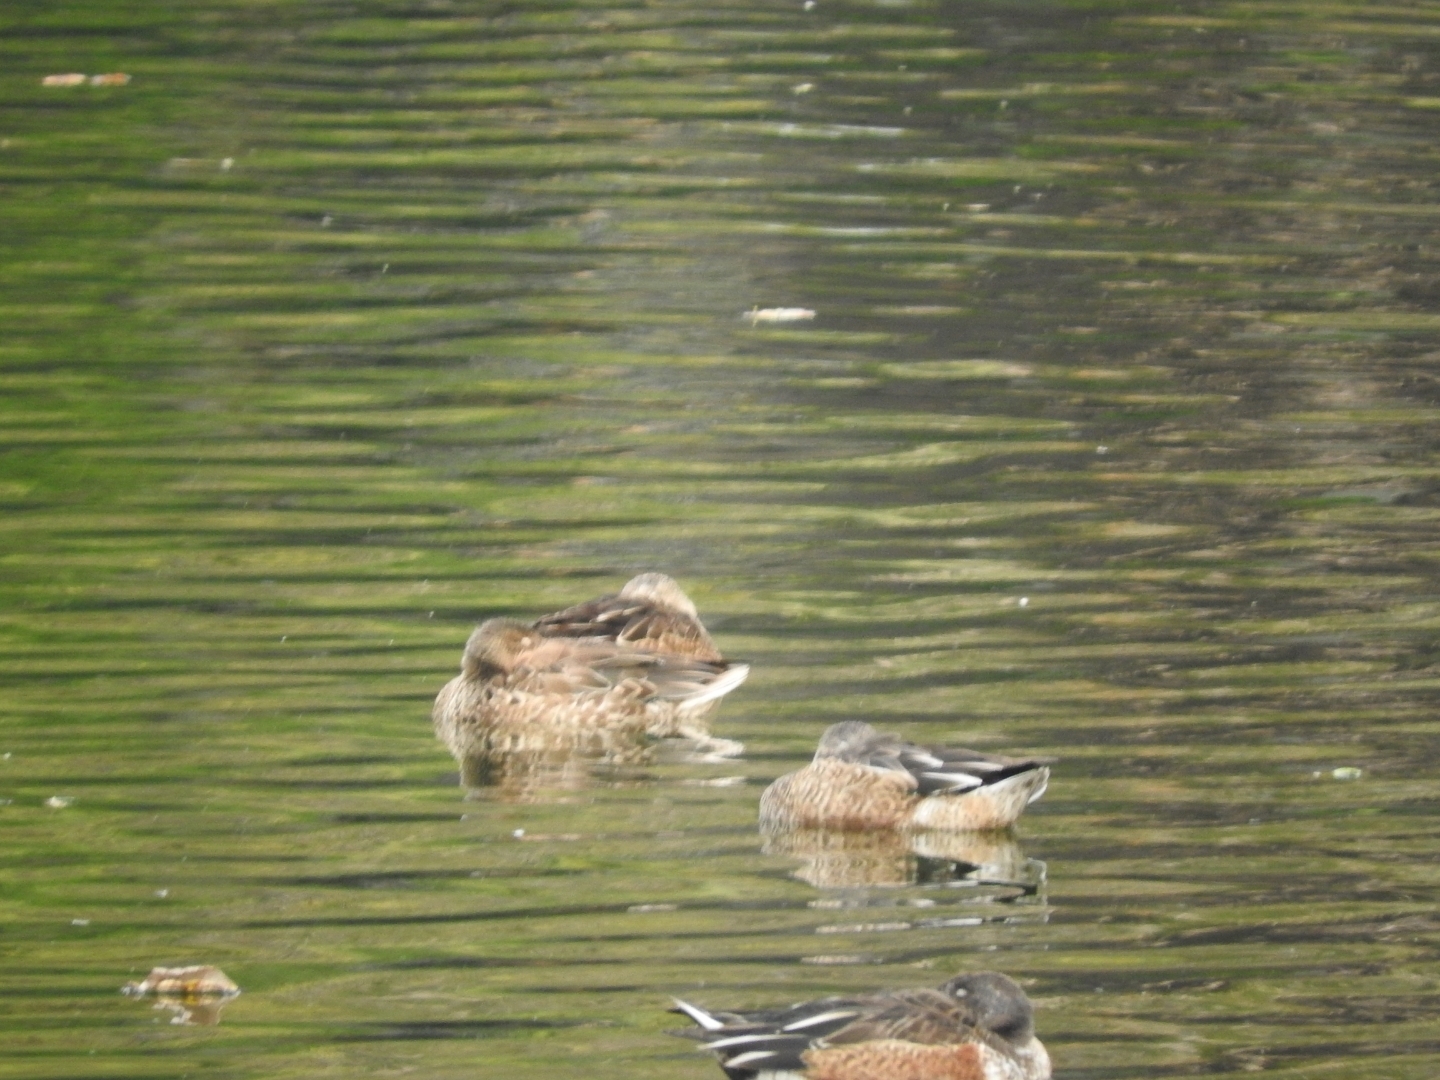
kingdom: Animalia
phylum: Chordata
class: Aves
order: Anseriformes
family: Anatidae
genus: Spatula
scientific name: Spatula clypeata
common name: Northern shoveler
